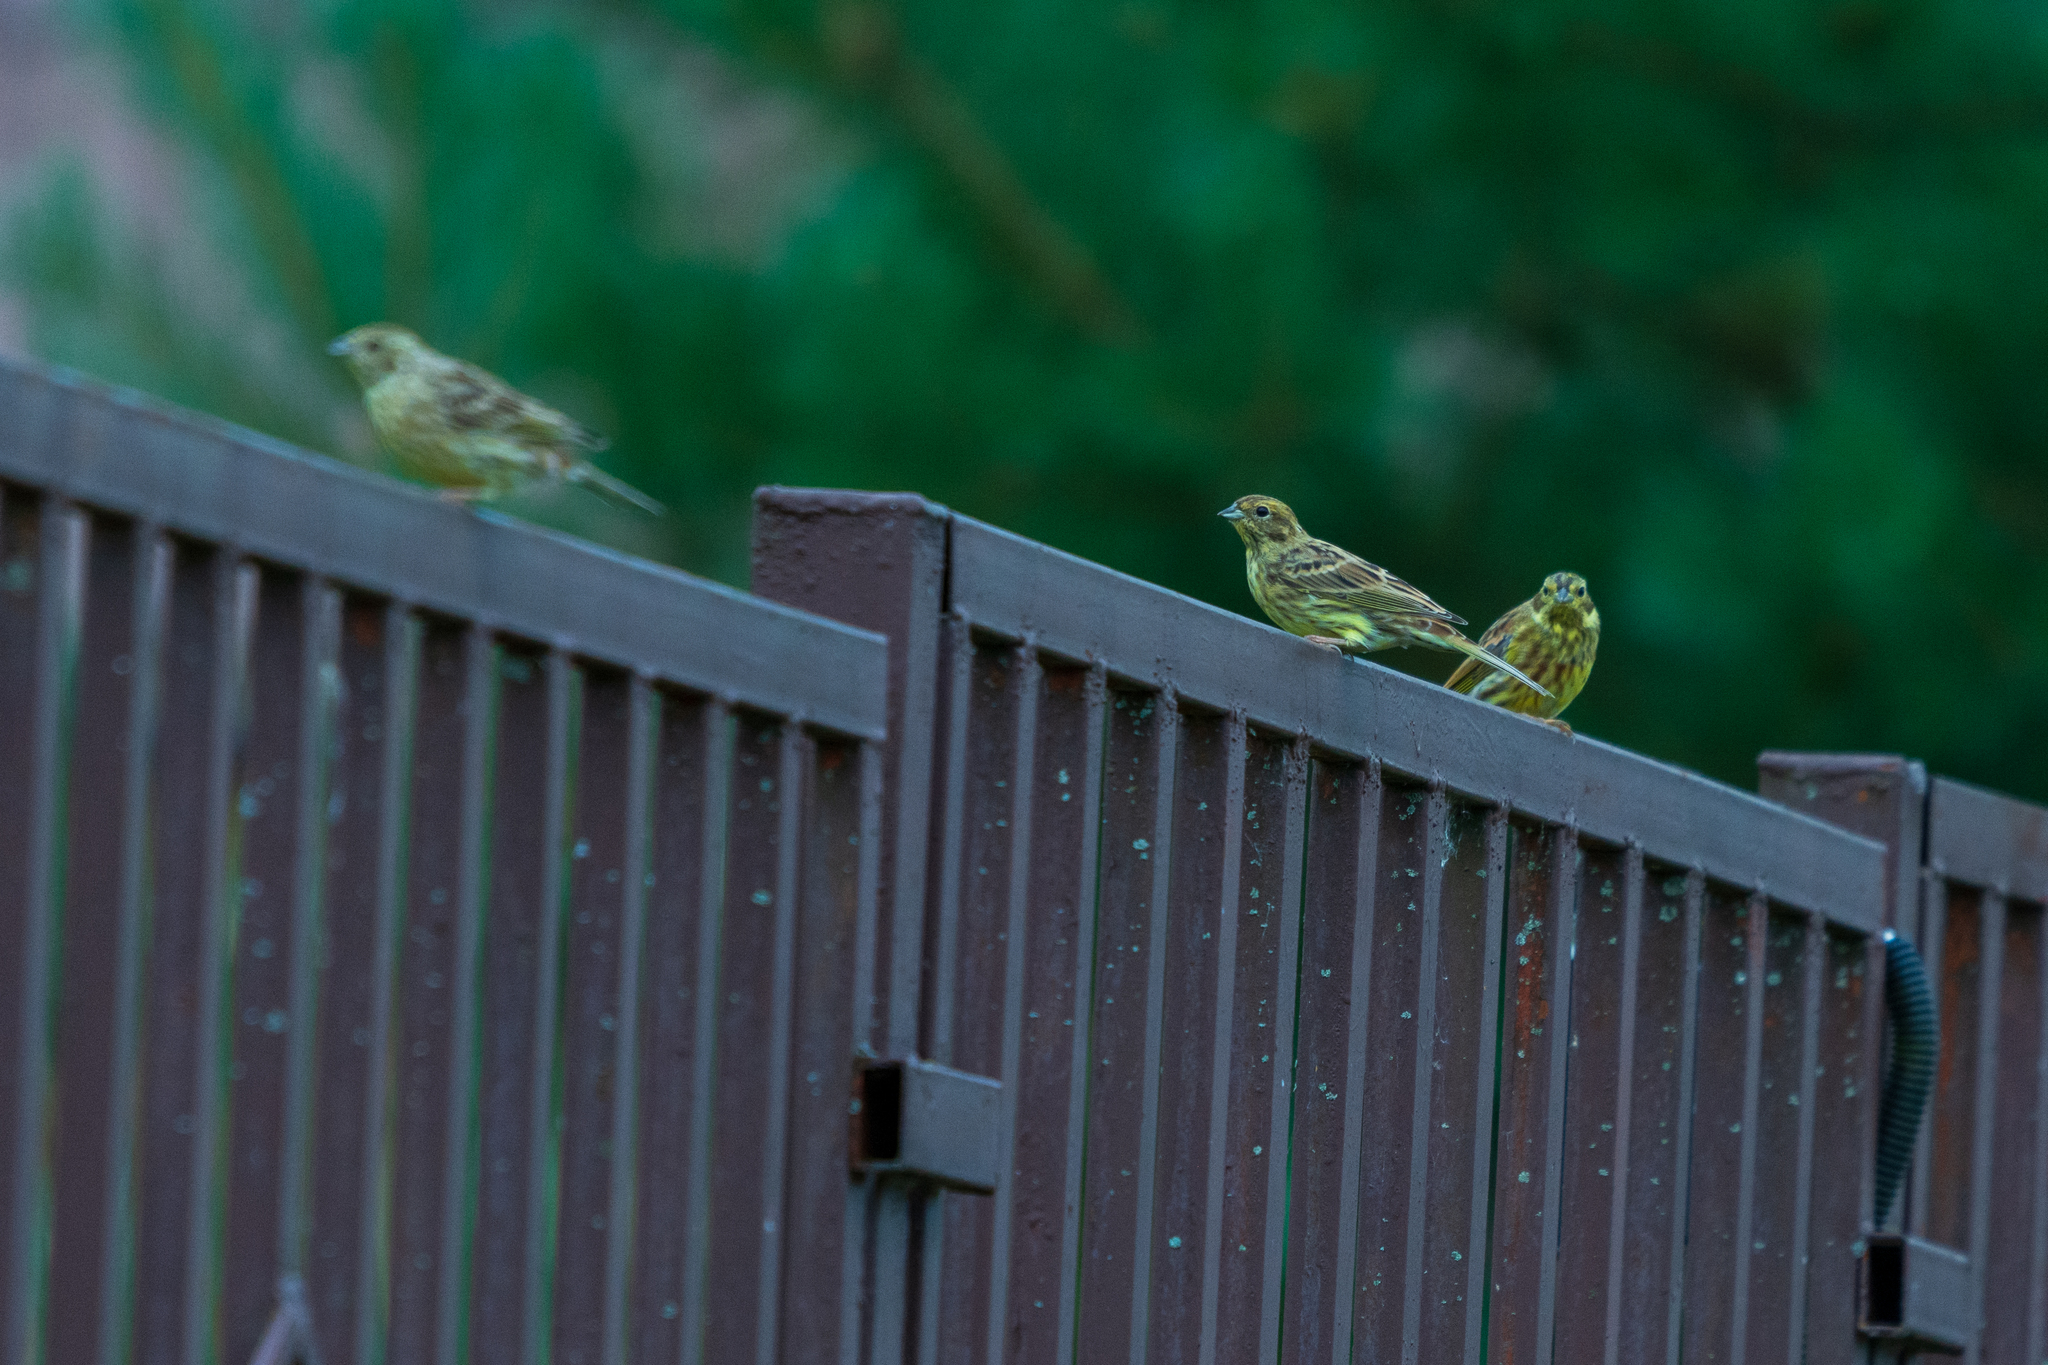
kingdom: Animalia
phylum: Chordata
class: Aves
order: Passeriformes
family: Emberizidae
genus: Emberiza
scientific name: Emberiza citrinella
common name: Yellowhammer
